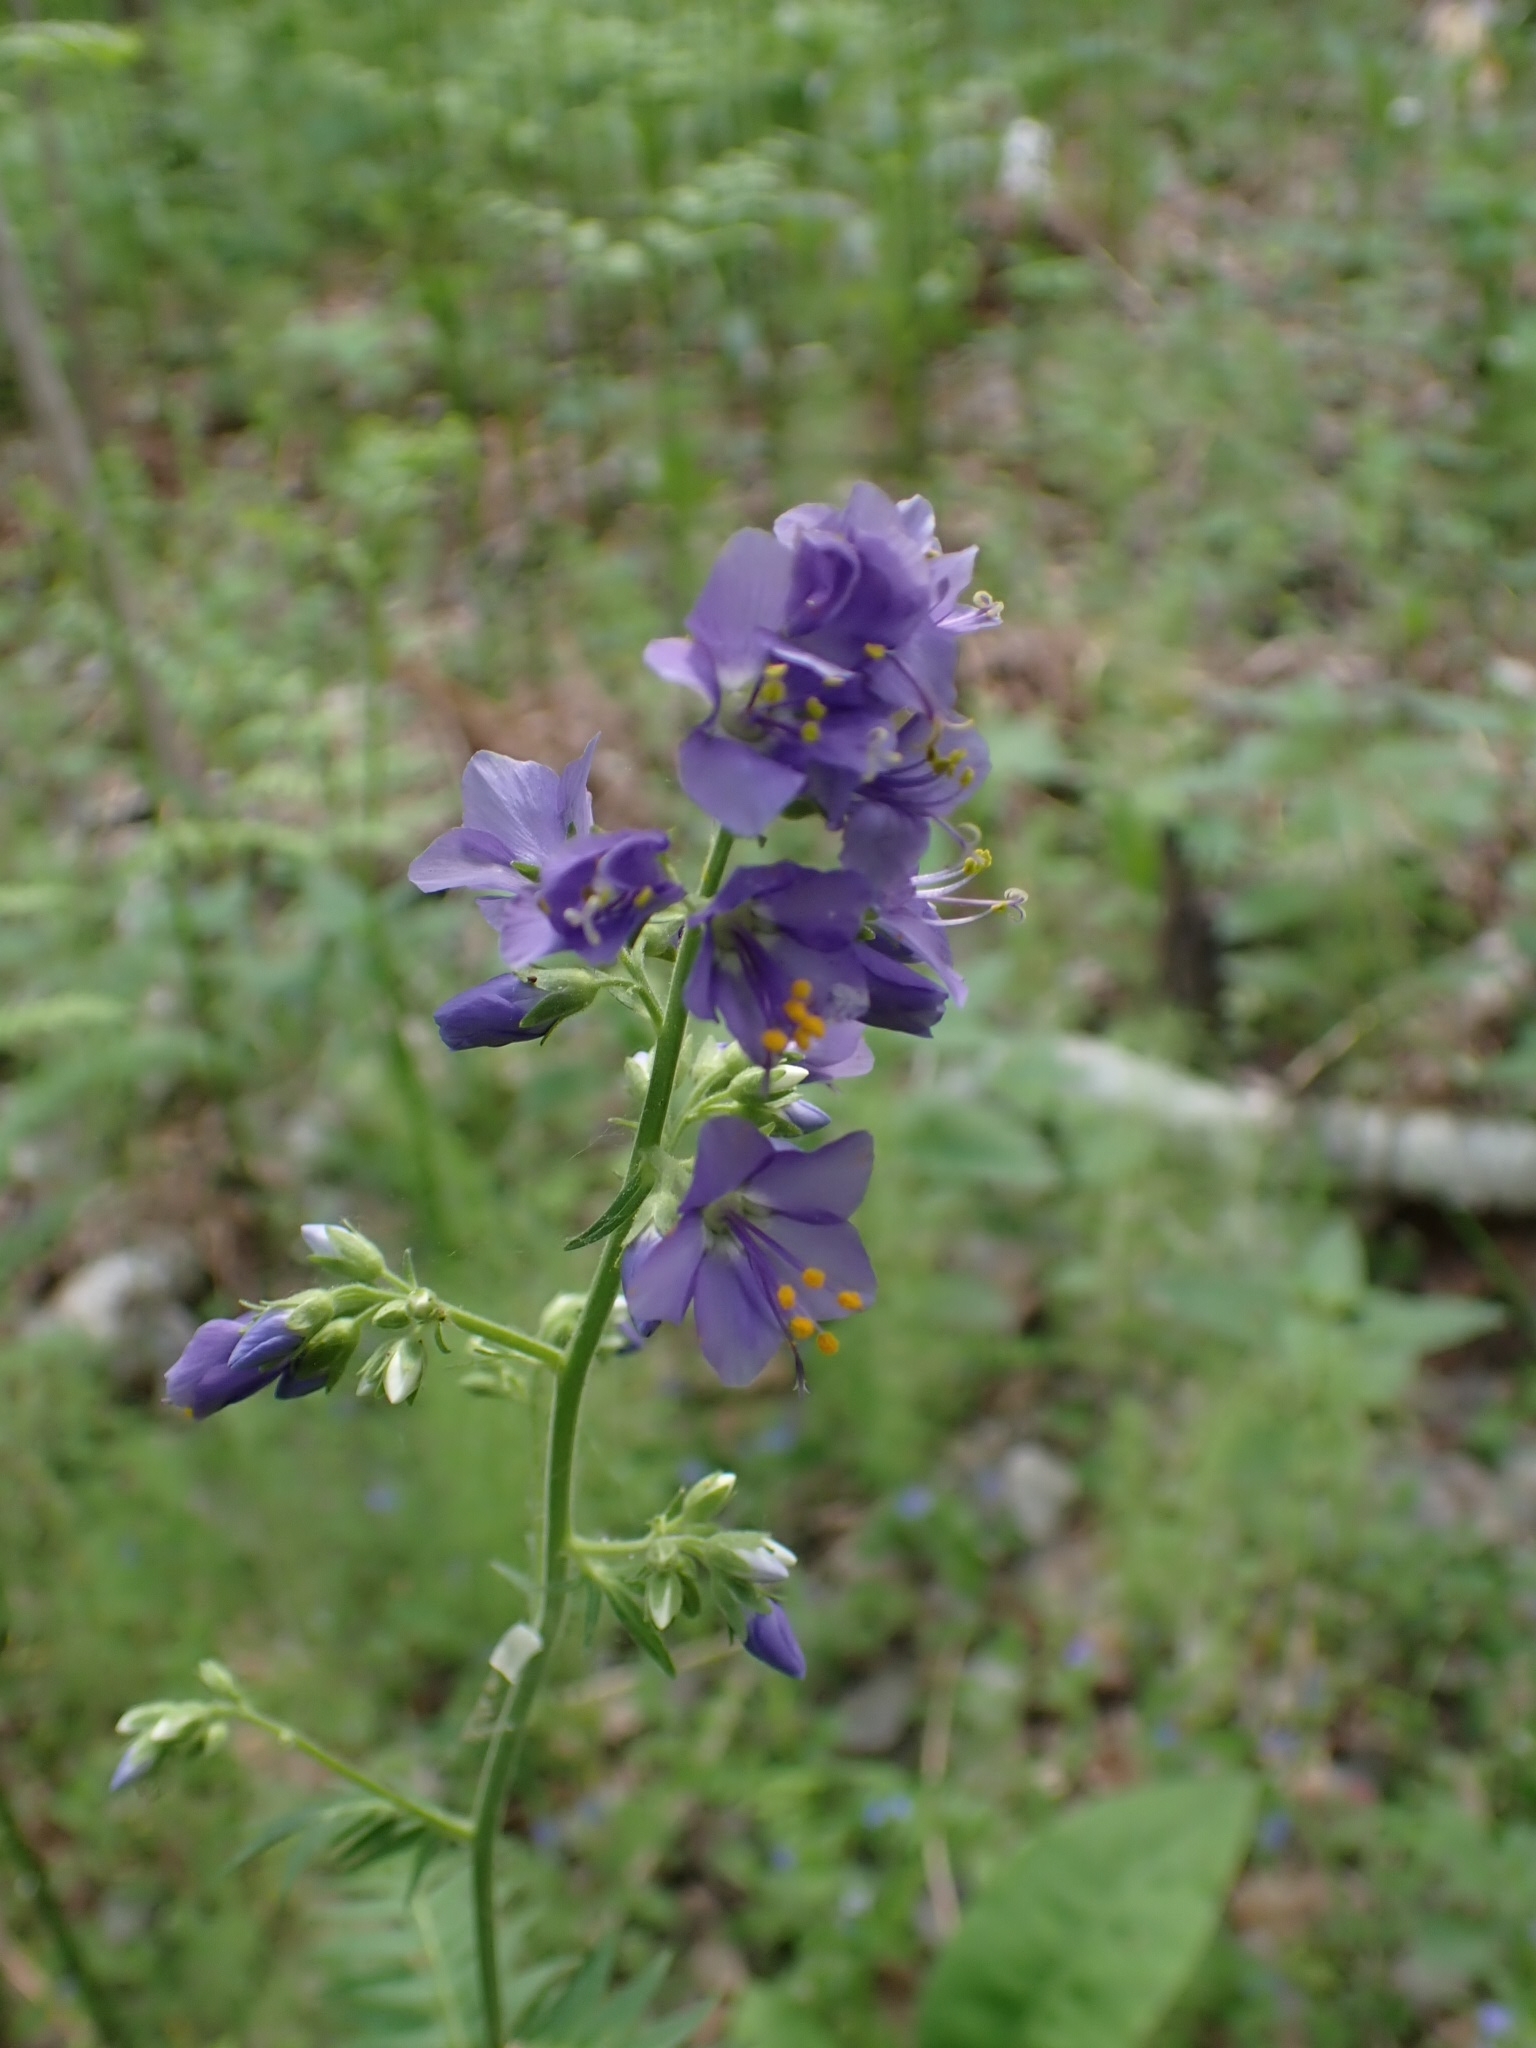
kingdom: Plantae
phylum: Tracheophyta
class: Magnoliopsida
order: Ericales
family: Polemoniaceae
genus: Polemonium
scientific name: Polemonium caeruleum
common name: Jacob's-ladder
